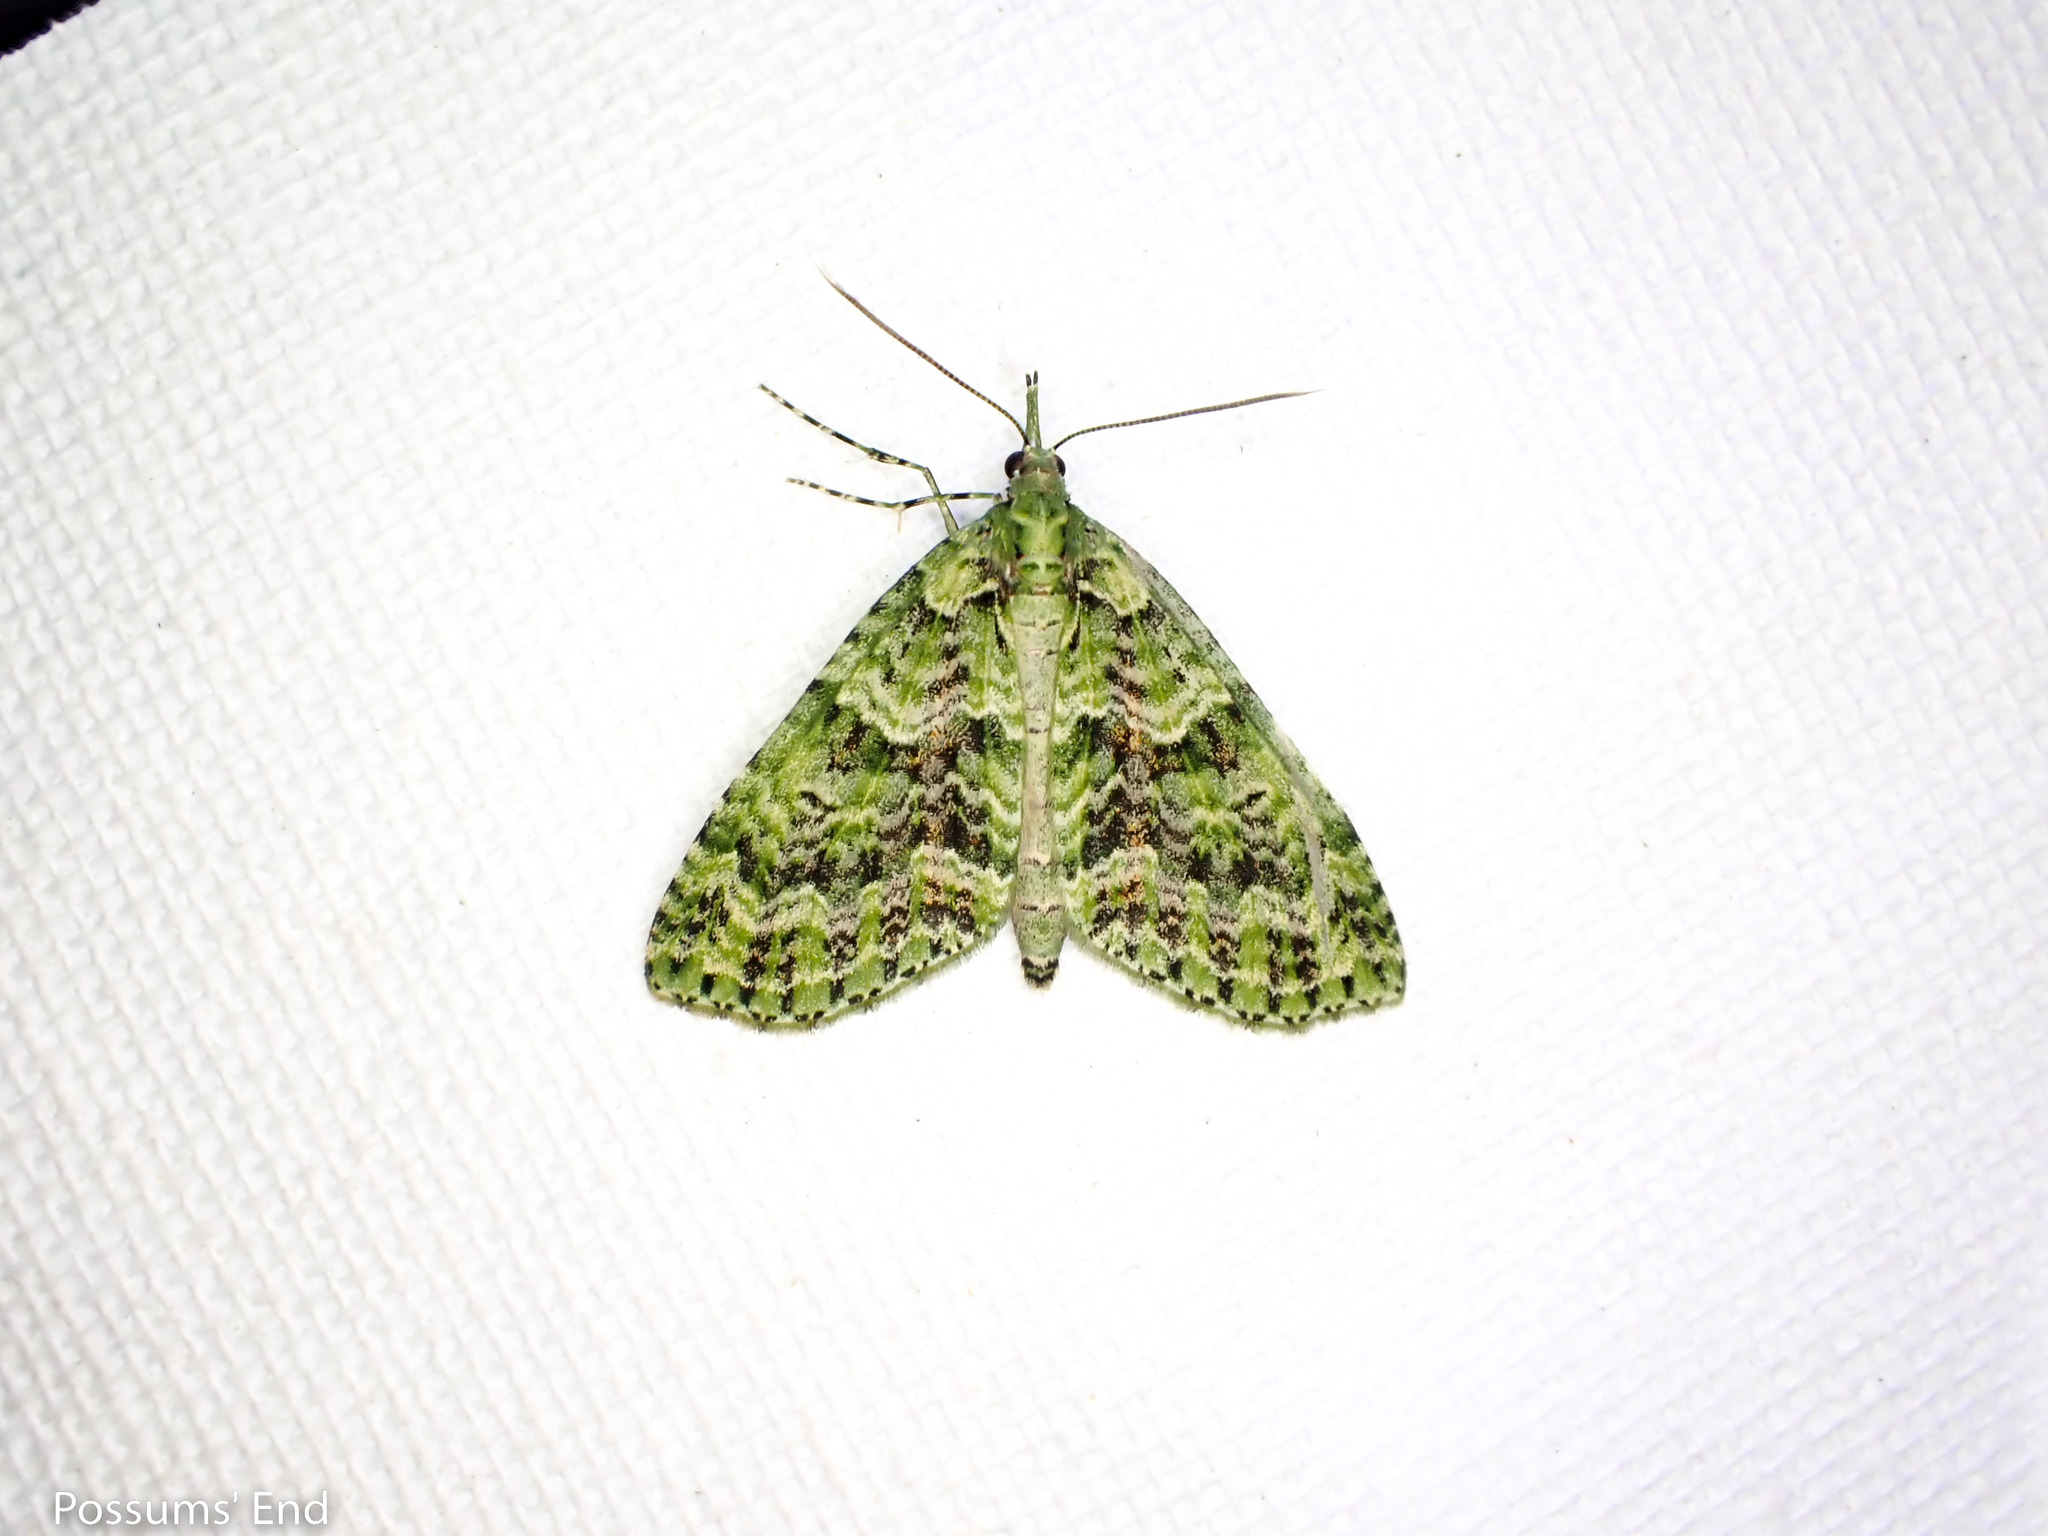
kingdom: Animalia
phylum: Arthropoda
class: Insecta
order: Lepidoptera
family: Geometridae
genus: Tatosoma
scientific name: Tatosoma tipulata
